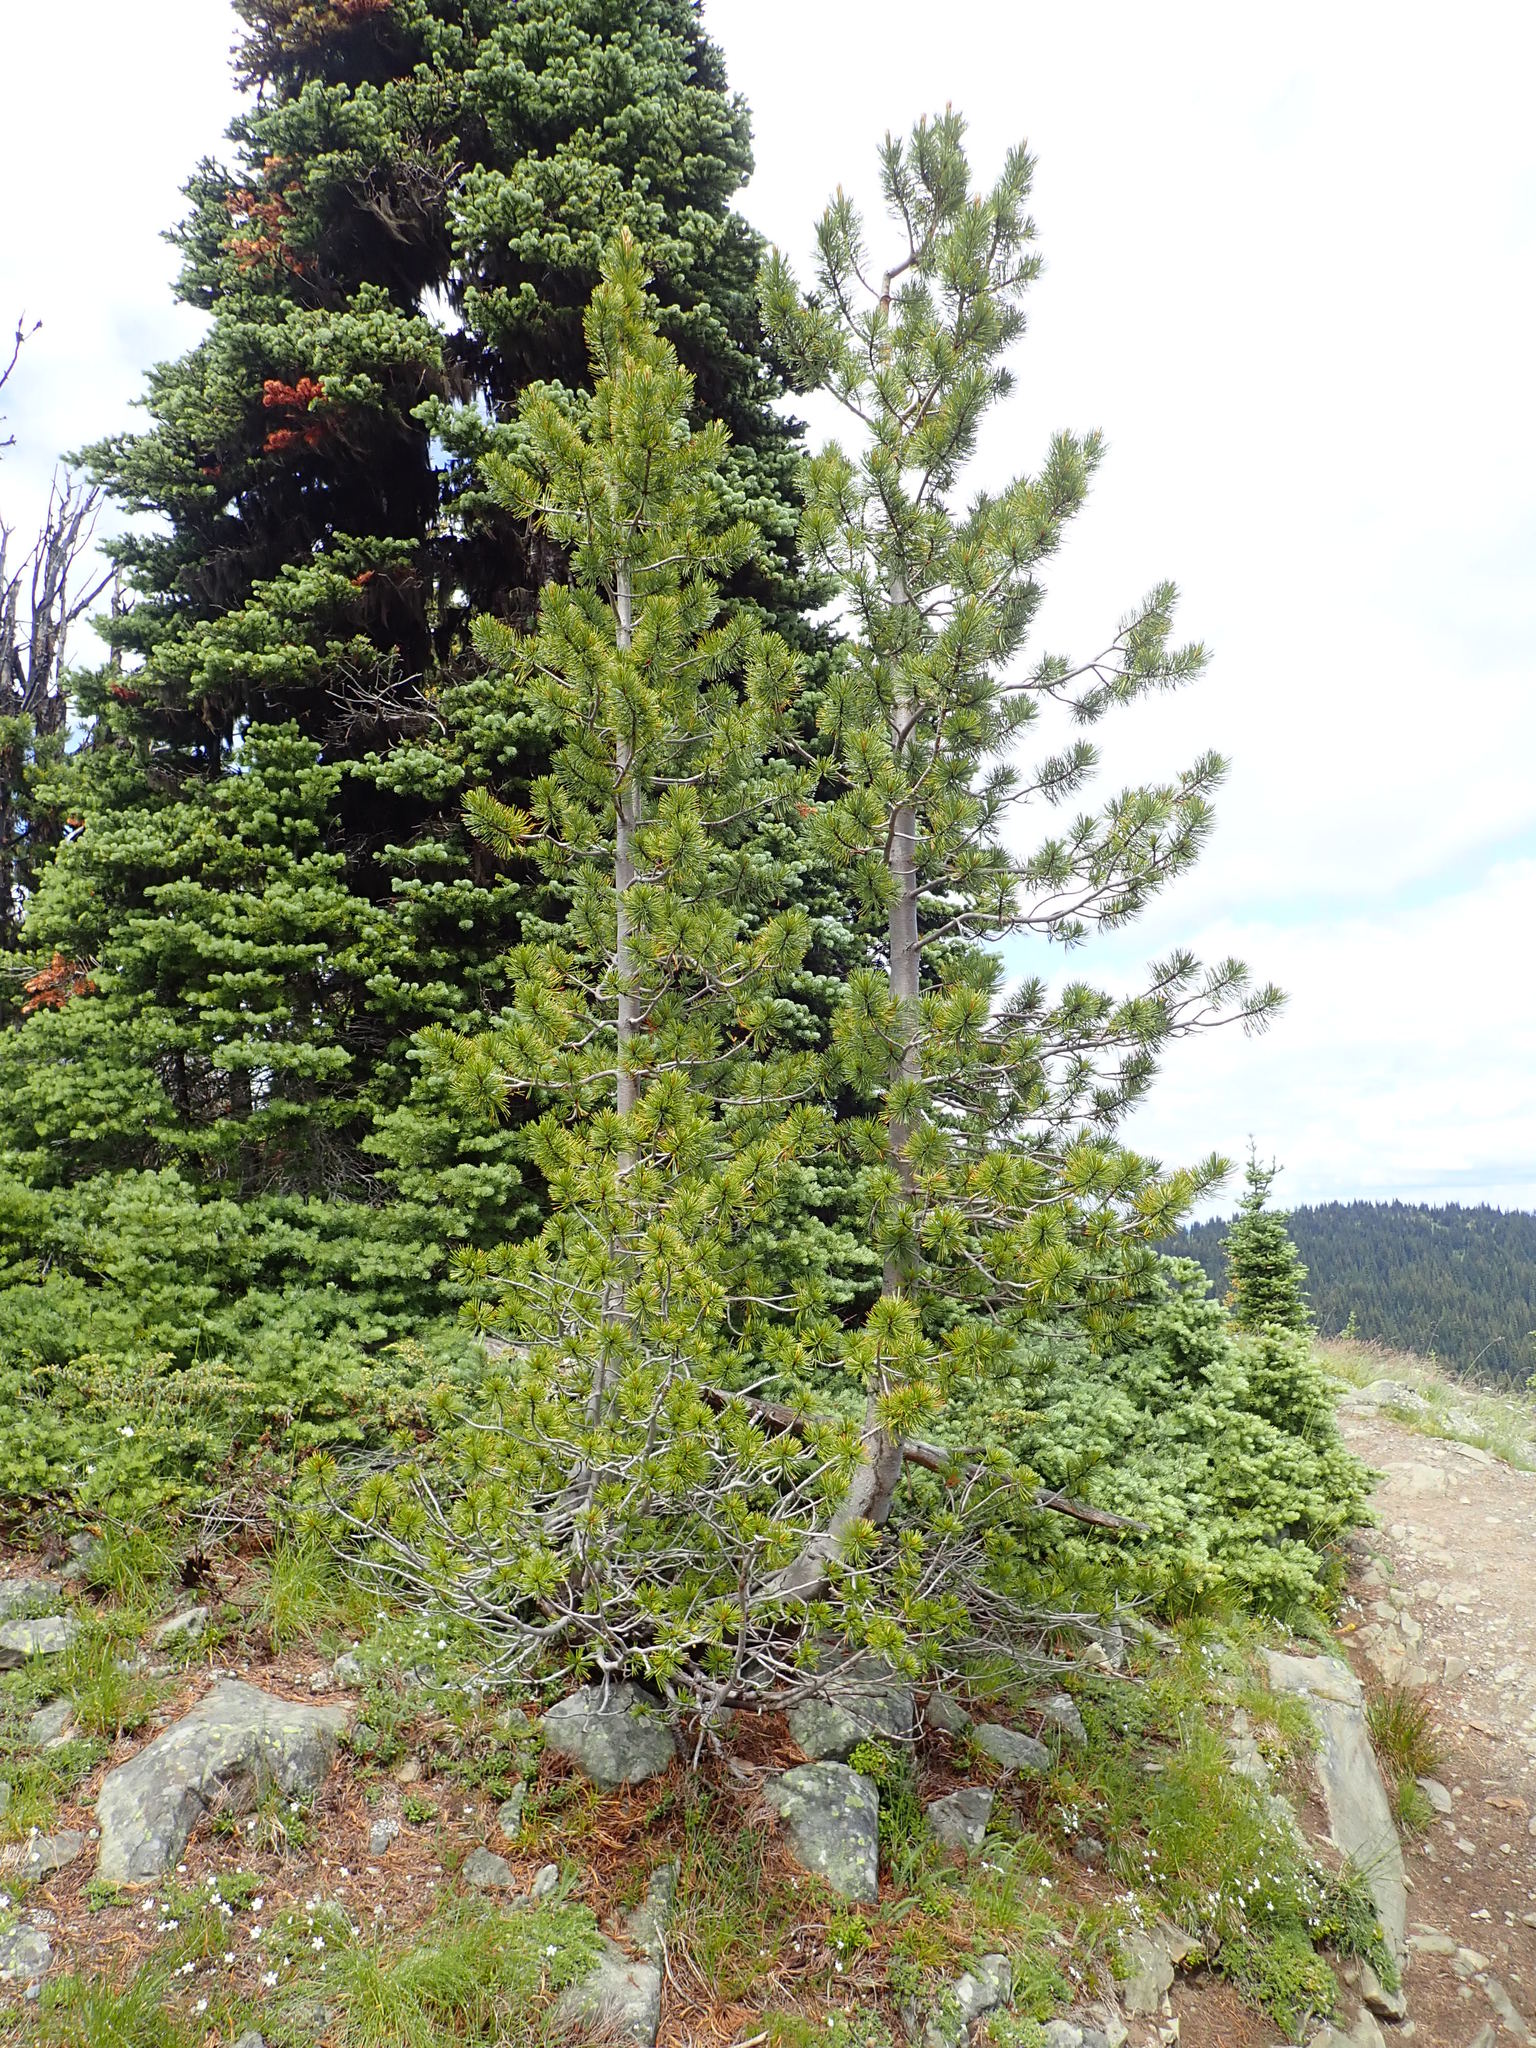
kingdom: Plantae
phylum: Tracheophyta
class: Pinopsida
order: Pinales
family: Pinaceae
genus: Pinus
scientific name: Pinus albicaulis
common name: Whitebark pine
